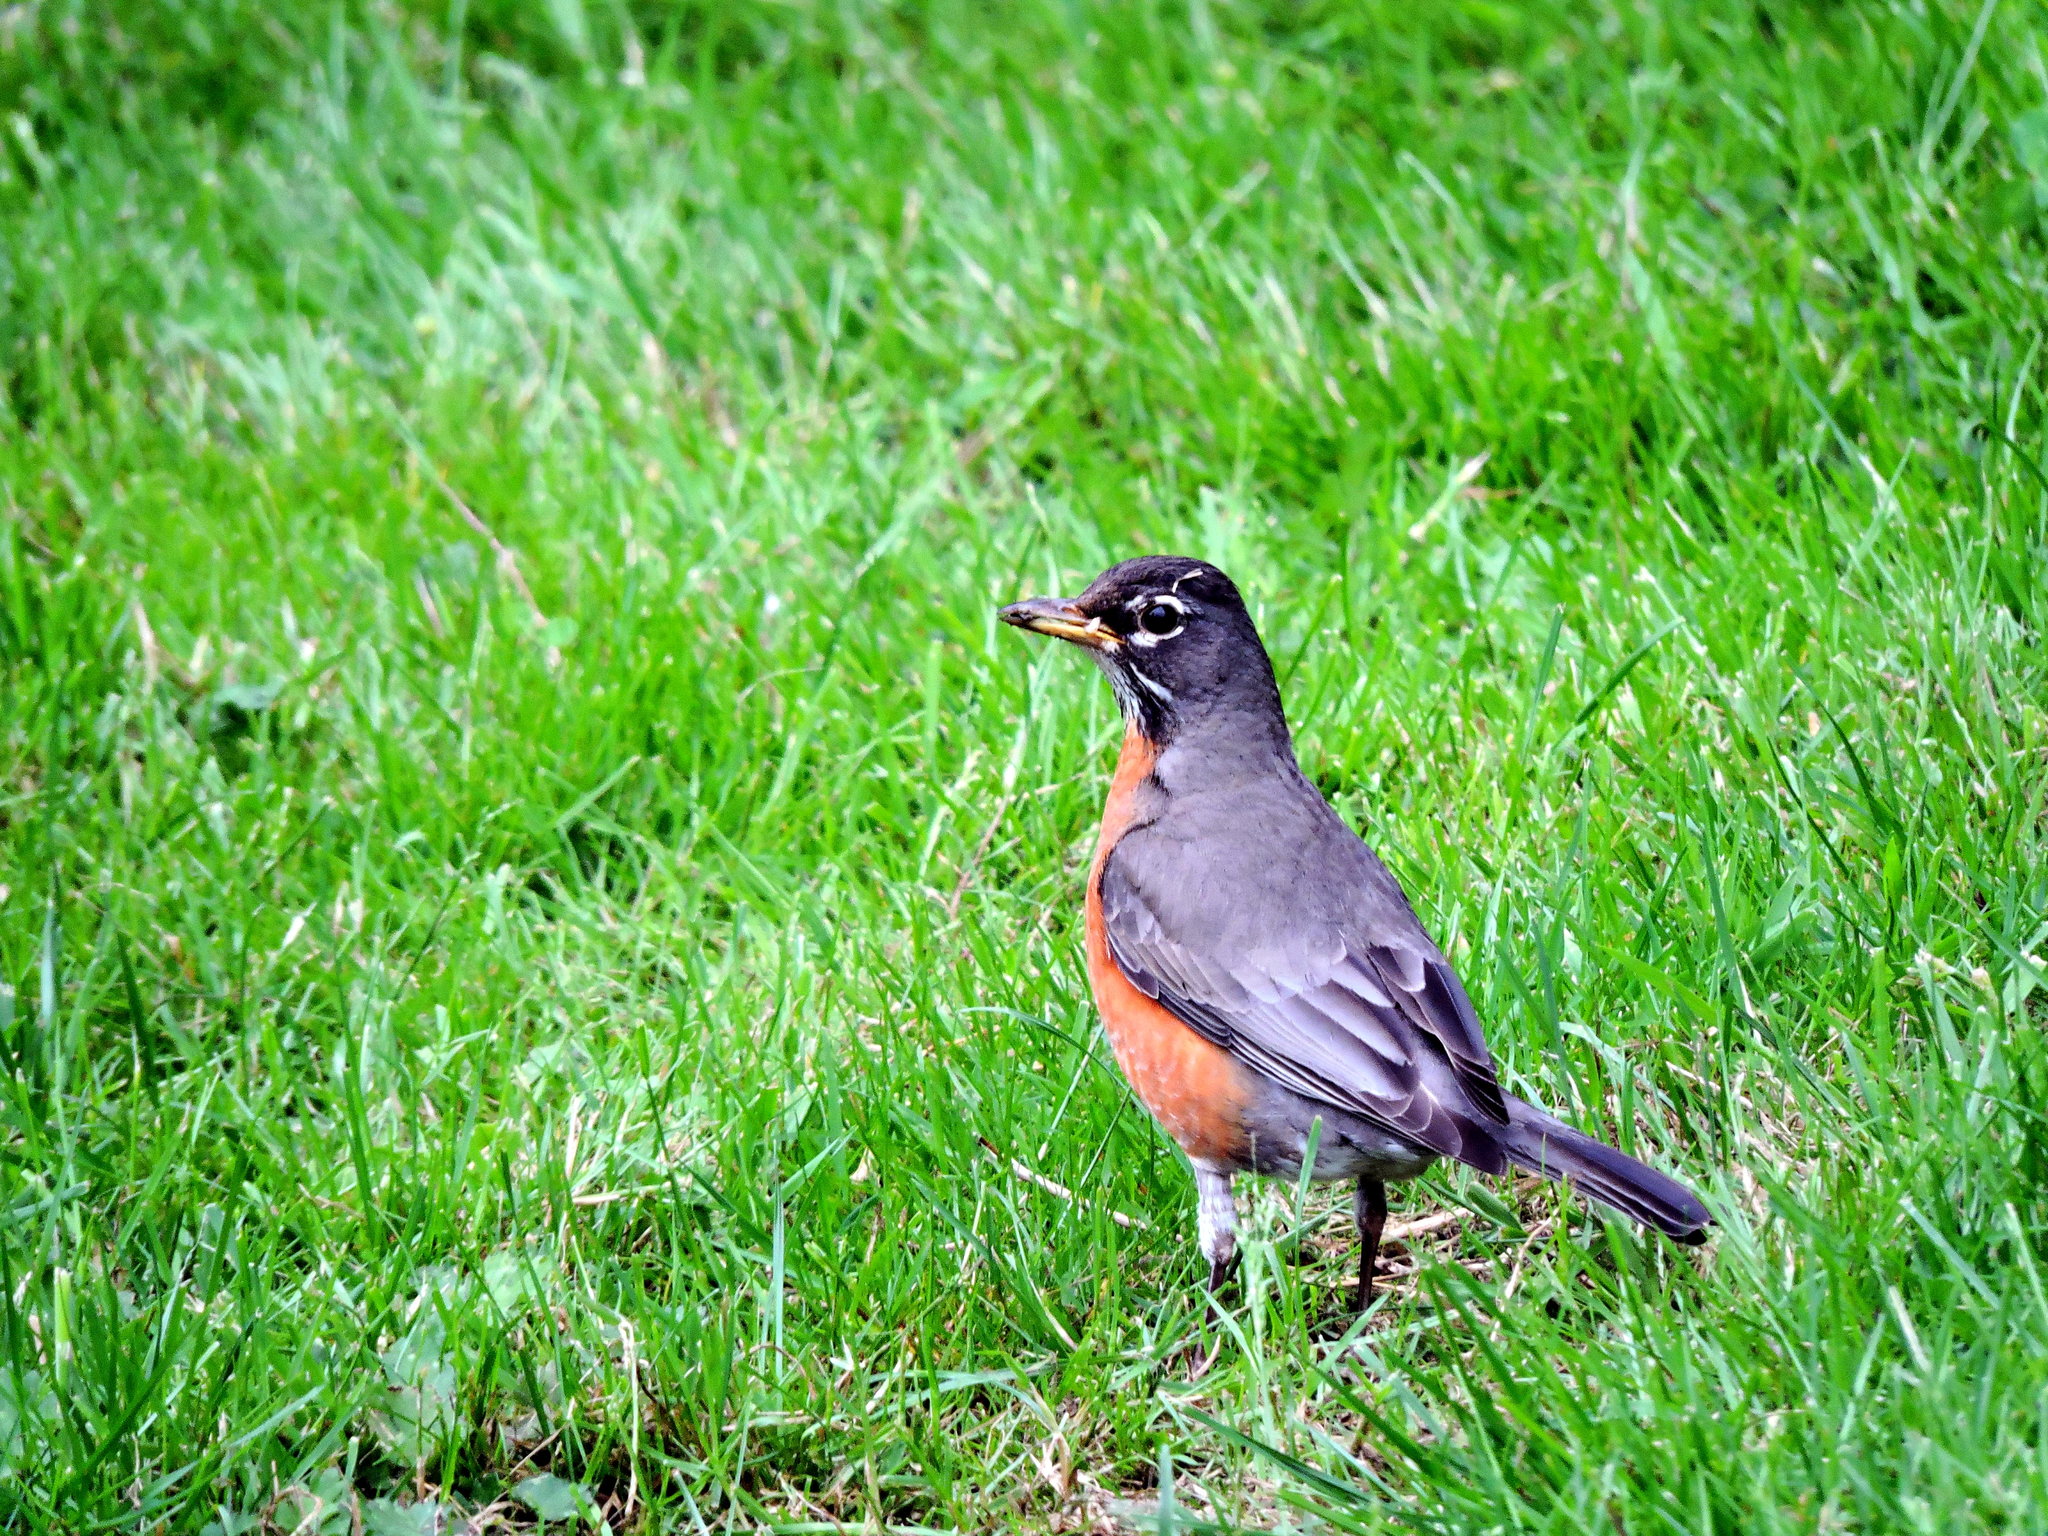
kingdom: Animalia
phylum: Chordata
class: Aves
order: Passeriformes
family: Turdidae
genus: Turdus
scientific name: Turdus migratorius
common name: American robin
